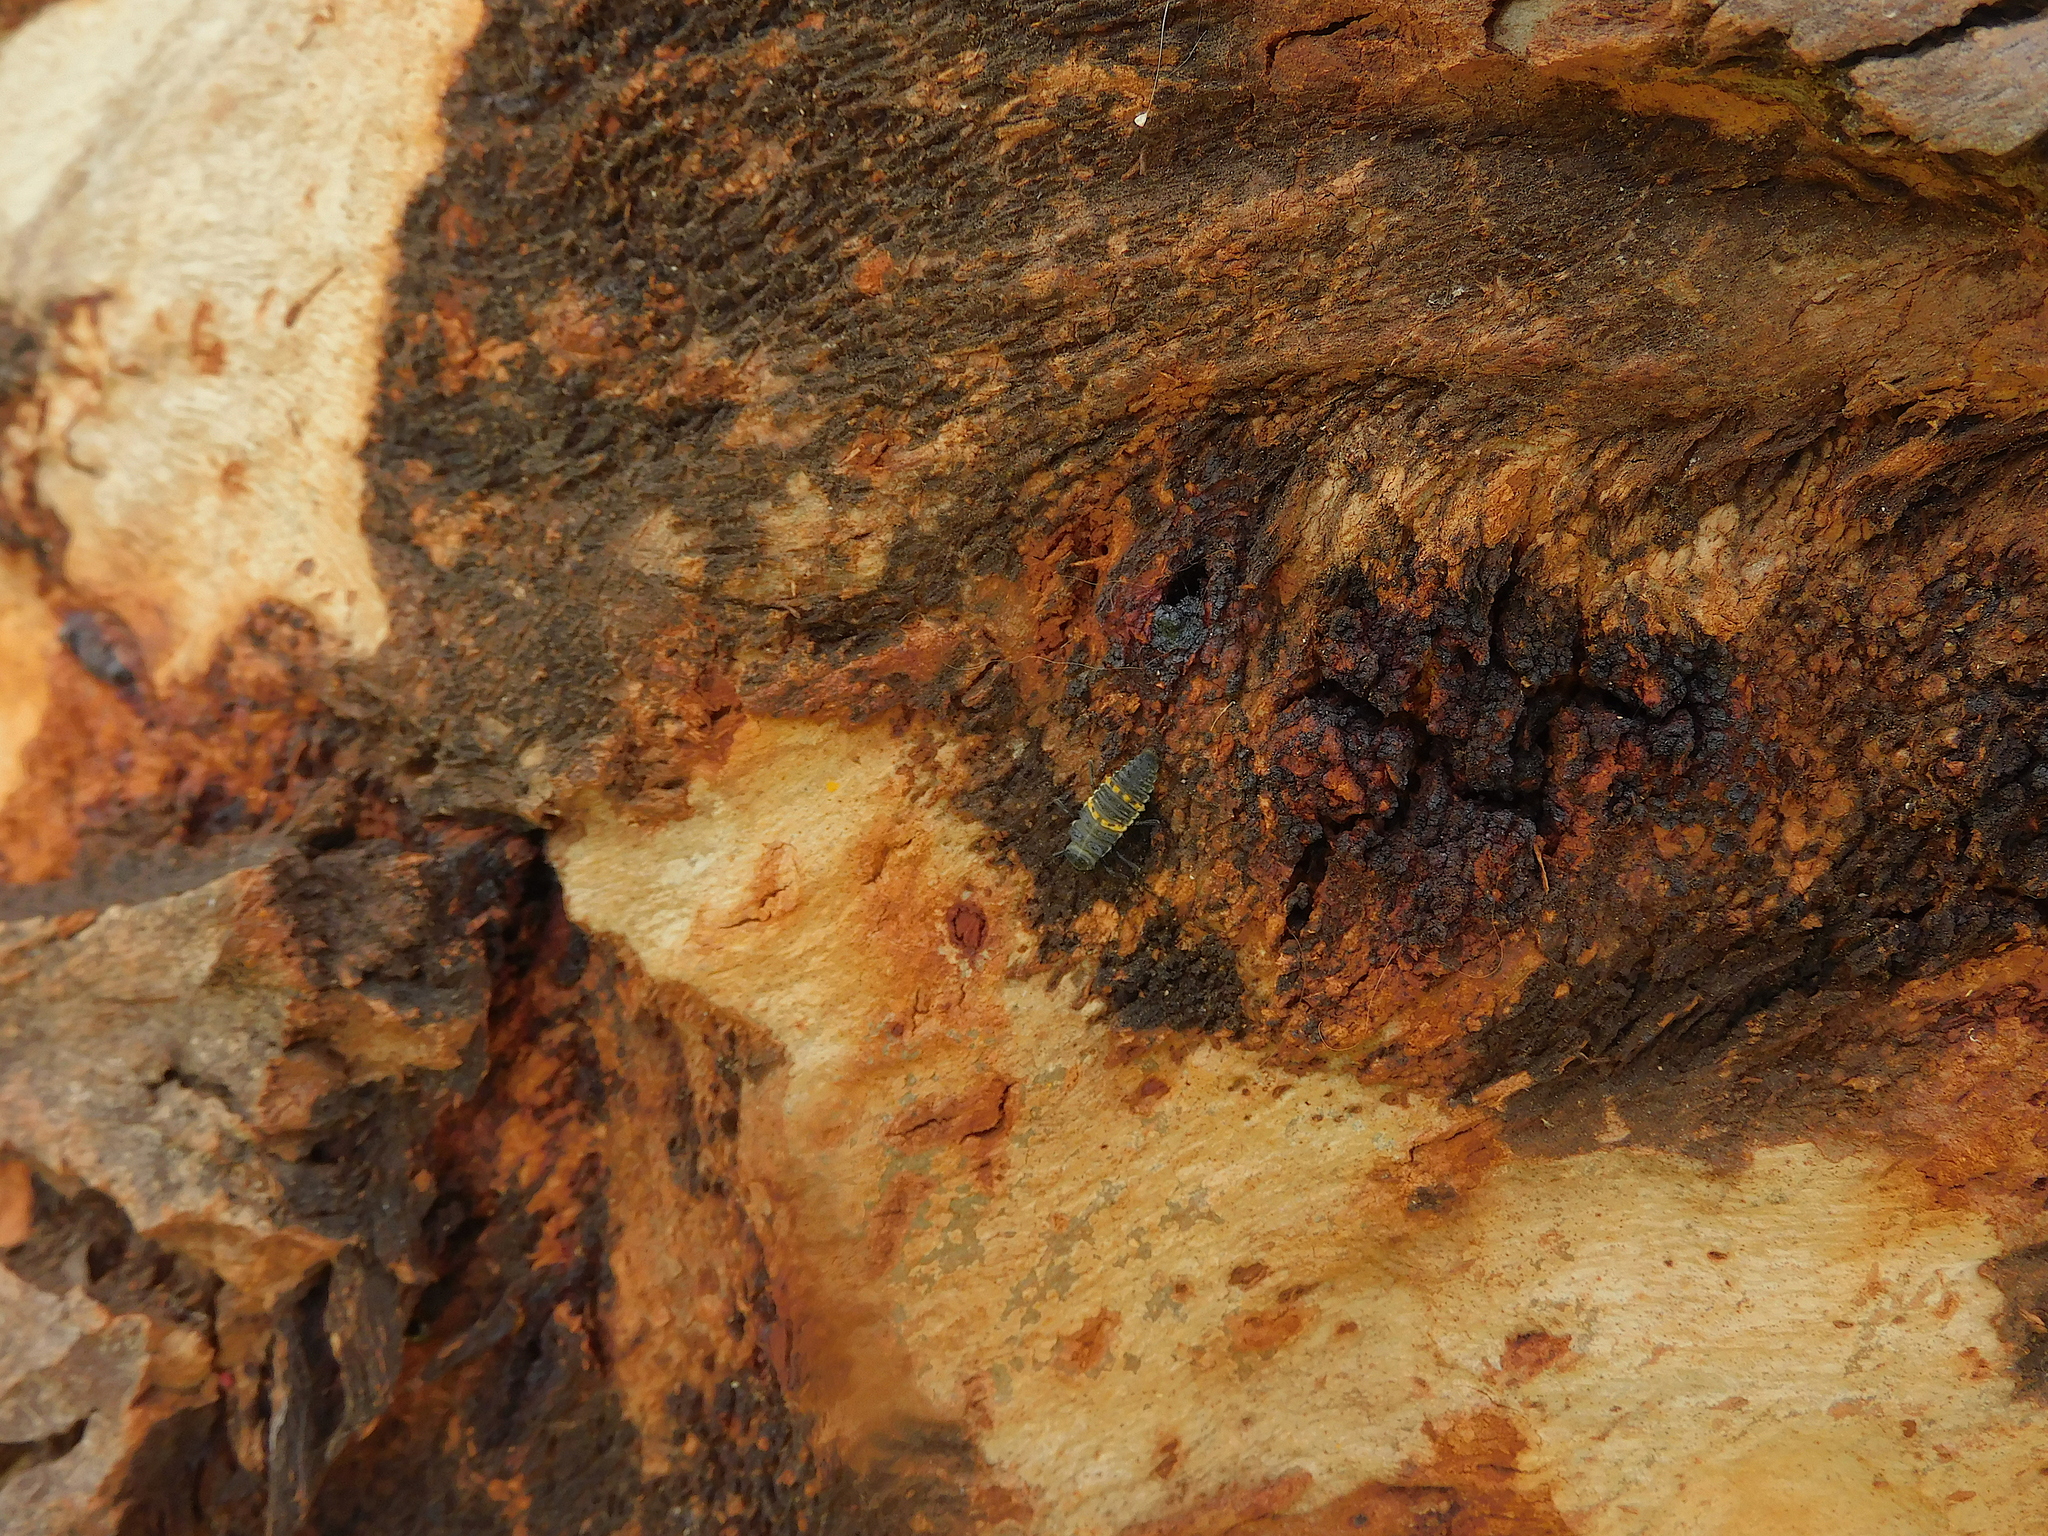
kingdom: Animalia
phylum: Arthropoda
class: Insecta
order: Coleoptera
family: Coccinellidae
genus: Harmonia
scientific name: Harmonia conformis
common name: Common spotted ladybird beetle
